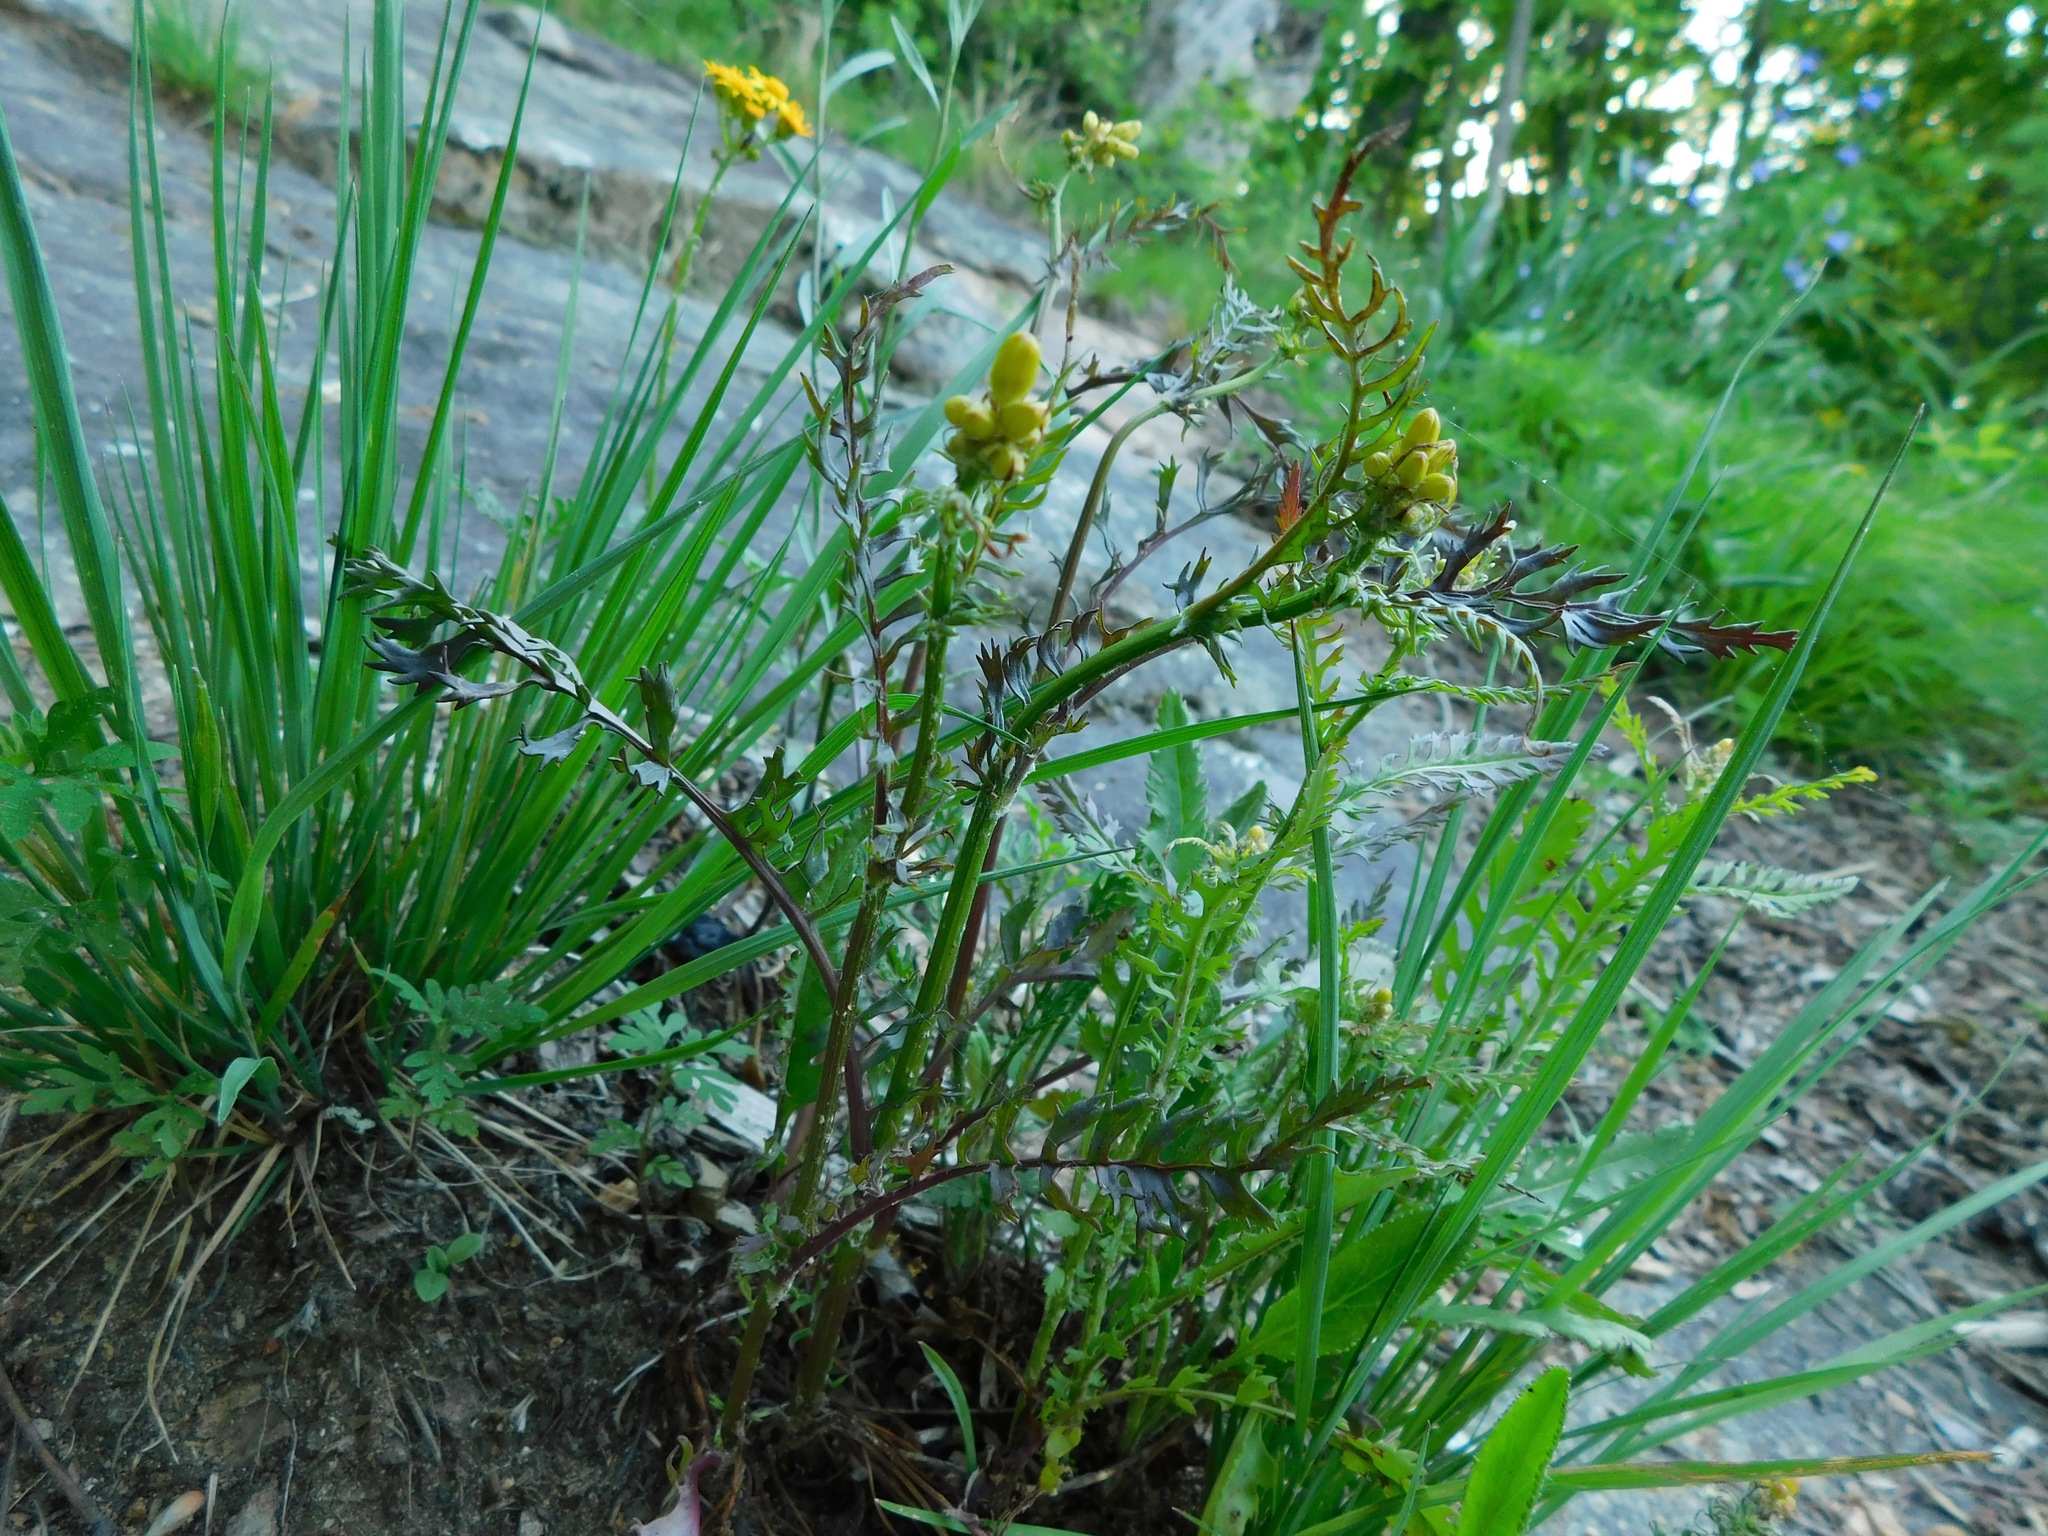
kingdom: Plantae
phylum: Tracheophyta
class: Magnoliopsida
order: Asterales
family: Asteraceae
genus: Senecio
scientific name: Senecio vulgaris
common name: Old-man-in-the-spring
